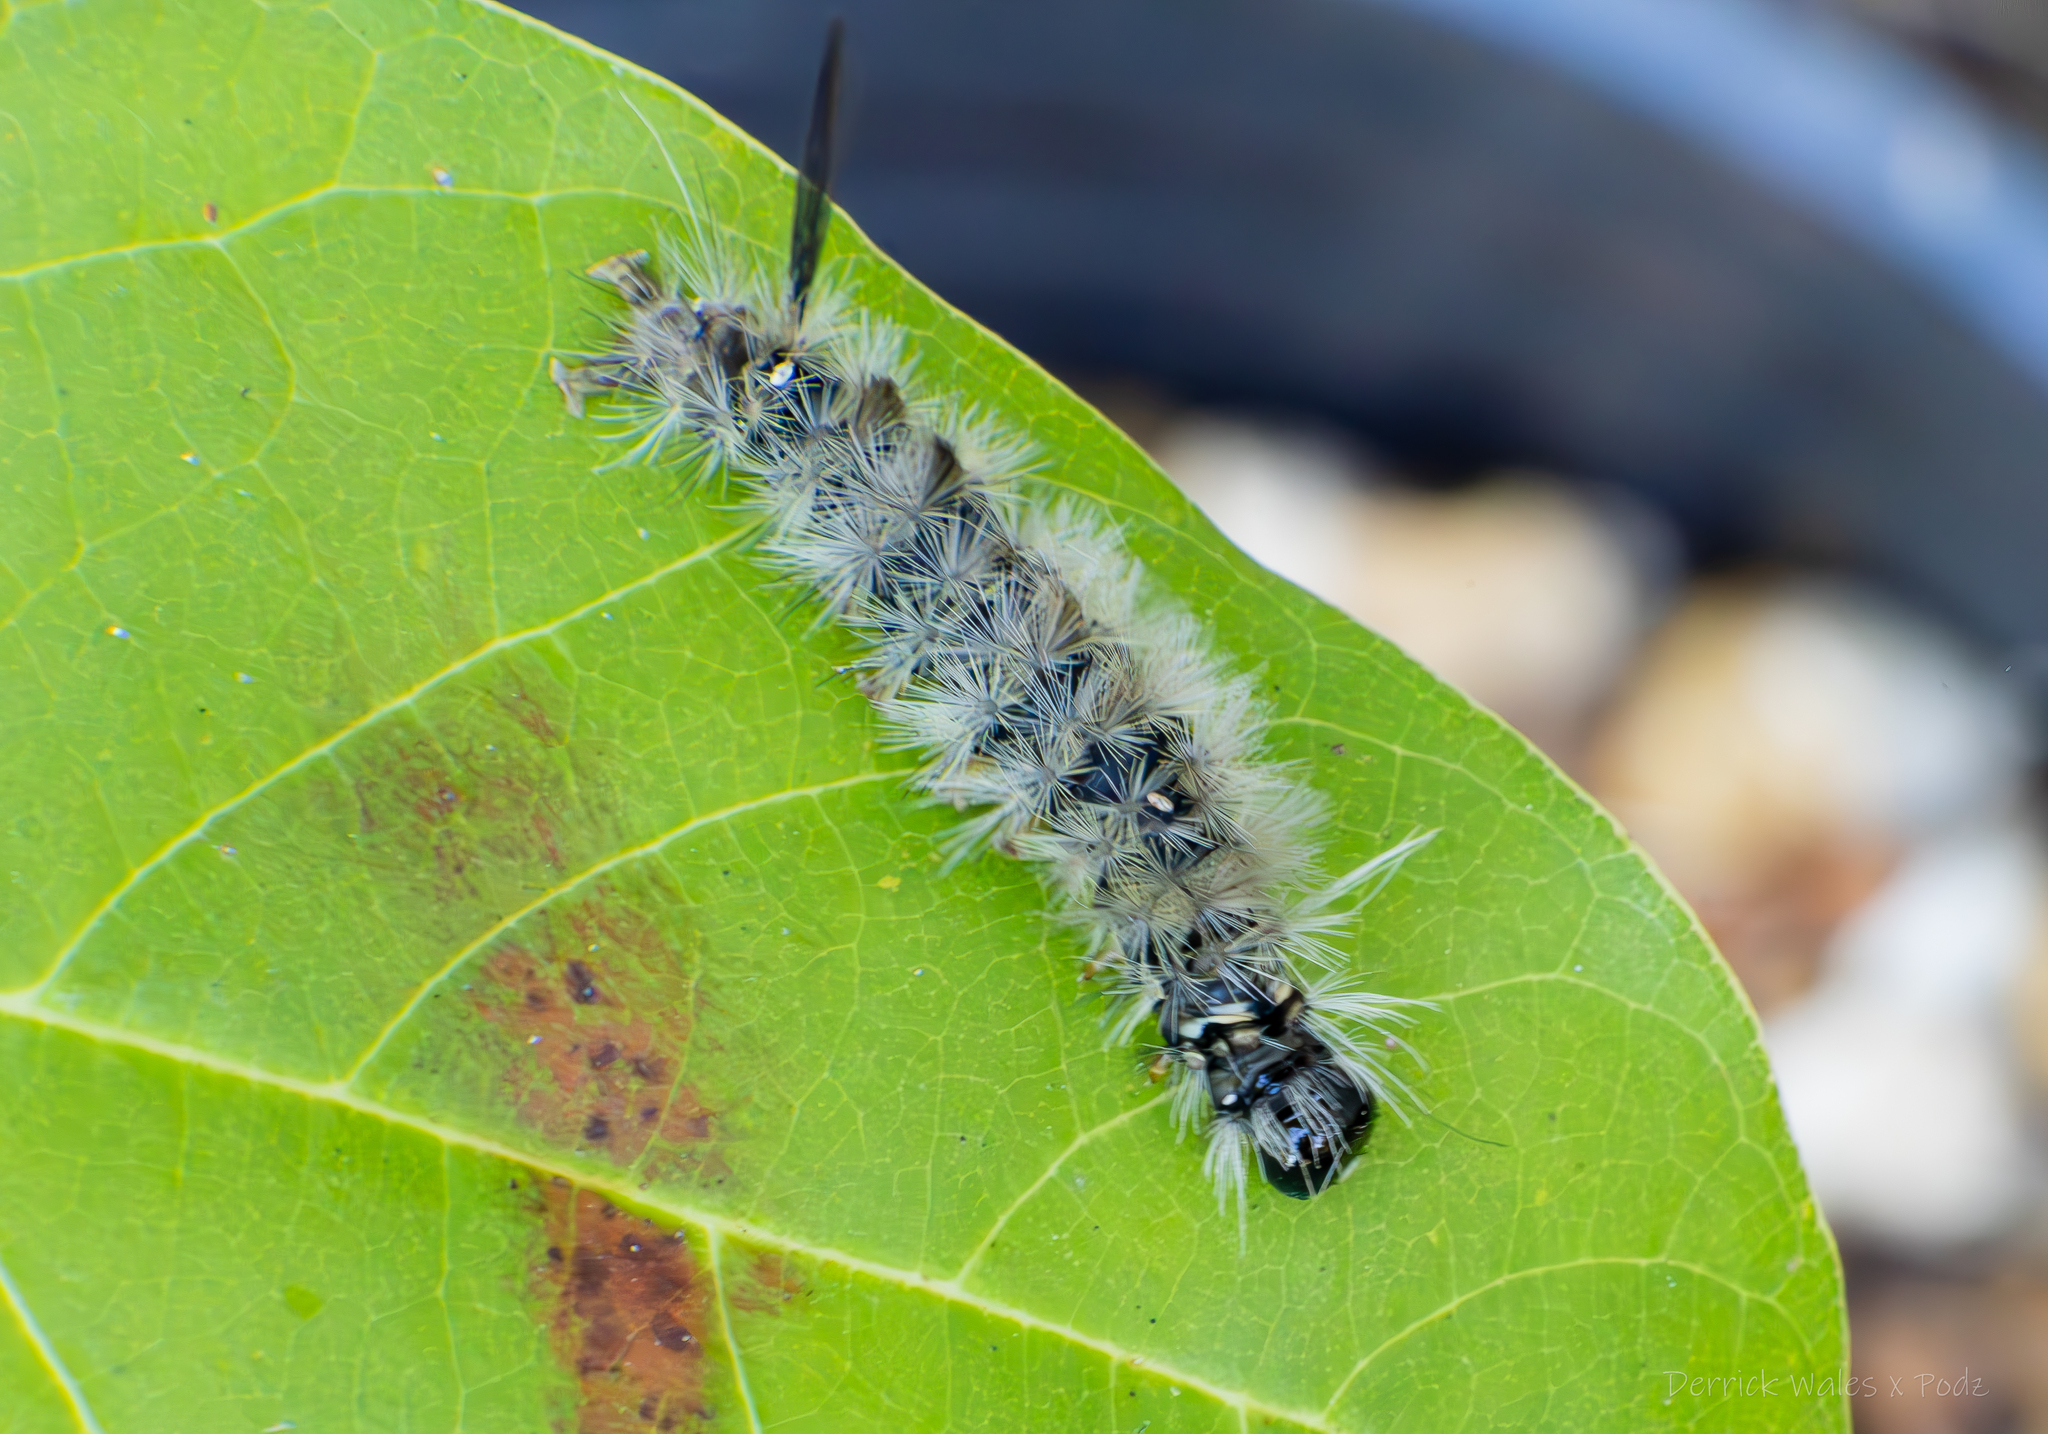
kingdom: Animalia
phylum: Arthropoda
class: Insecta
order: Lepidoptera
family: Erebidae
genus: Halysidota
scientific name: Halysidota tessellaris
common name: Banded tussock moth
